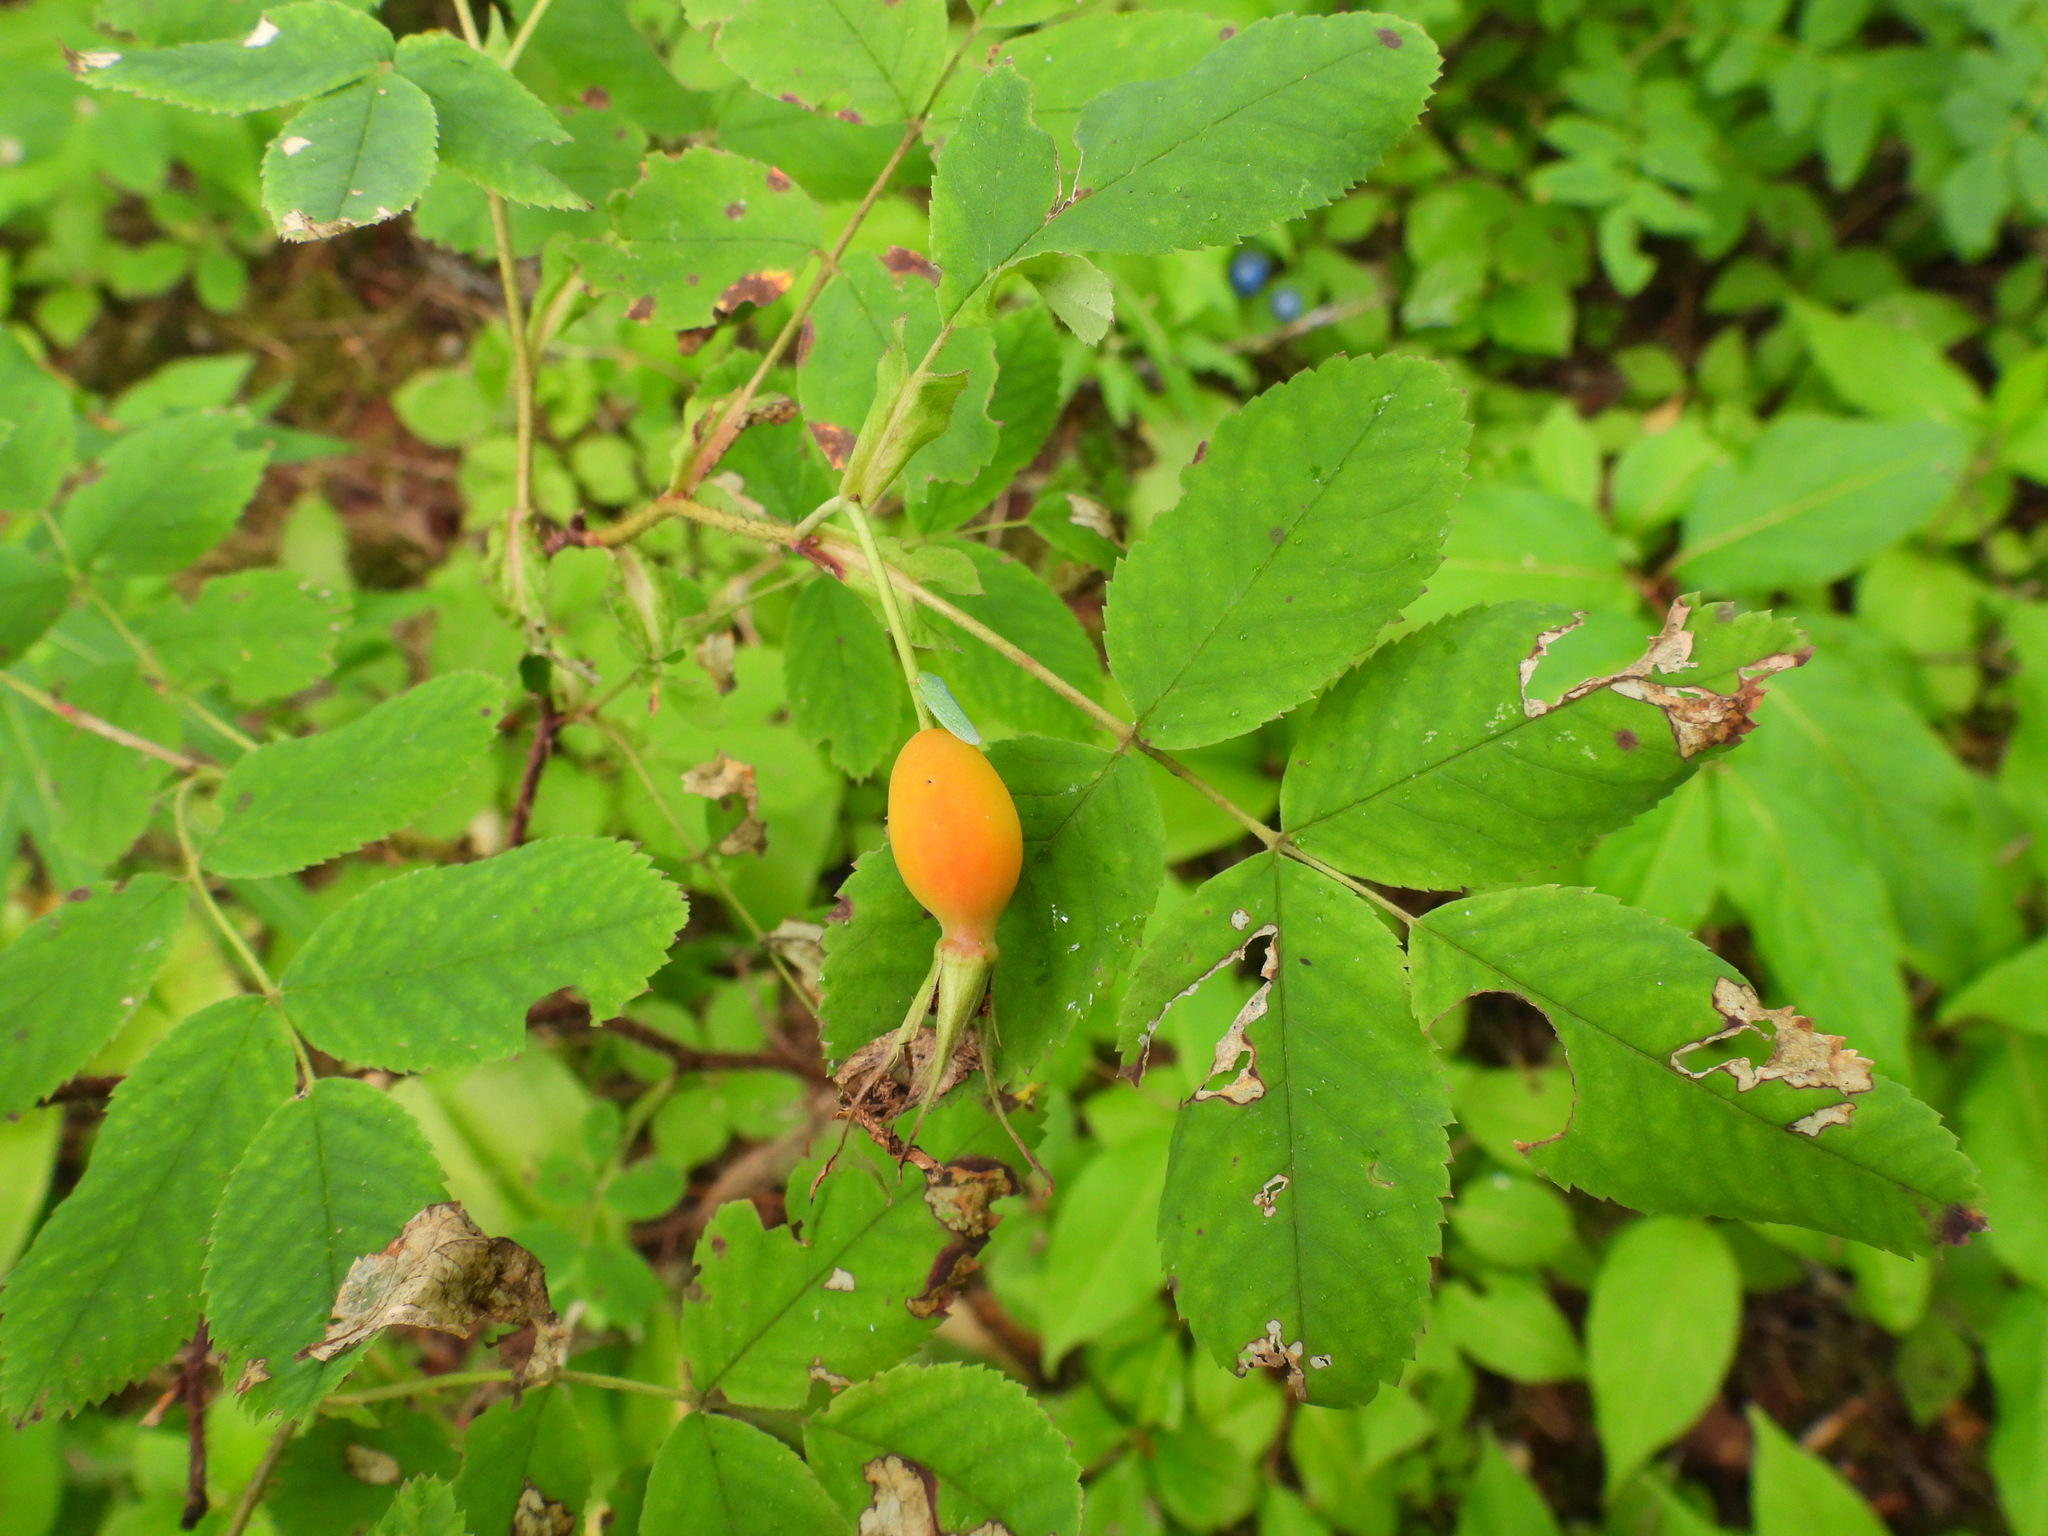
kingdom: Plantae
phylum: Tracheophyta
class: Magnoliopsida
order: Rosales
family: Rosaceae
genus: Rosa
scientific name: Rosa acicularis
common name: Prickly rose
